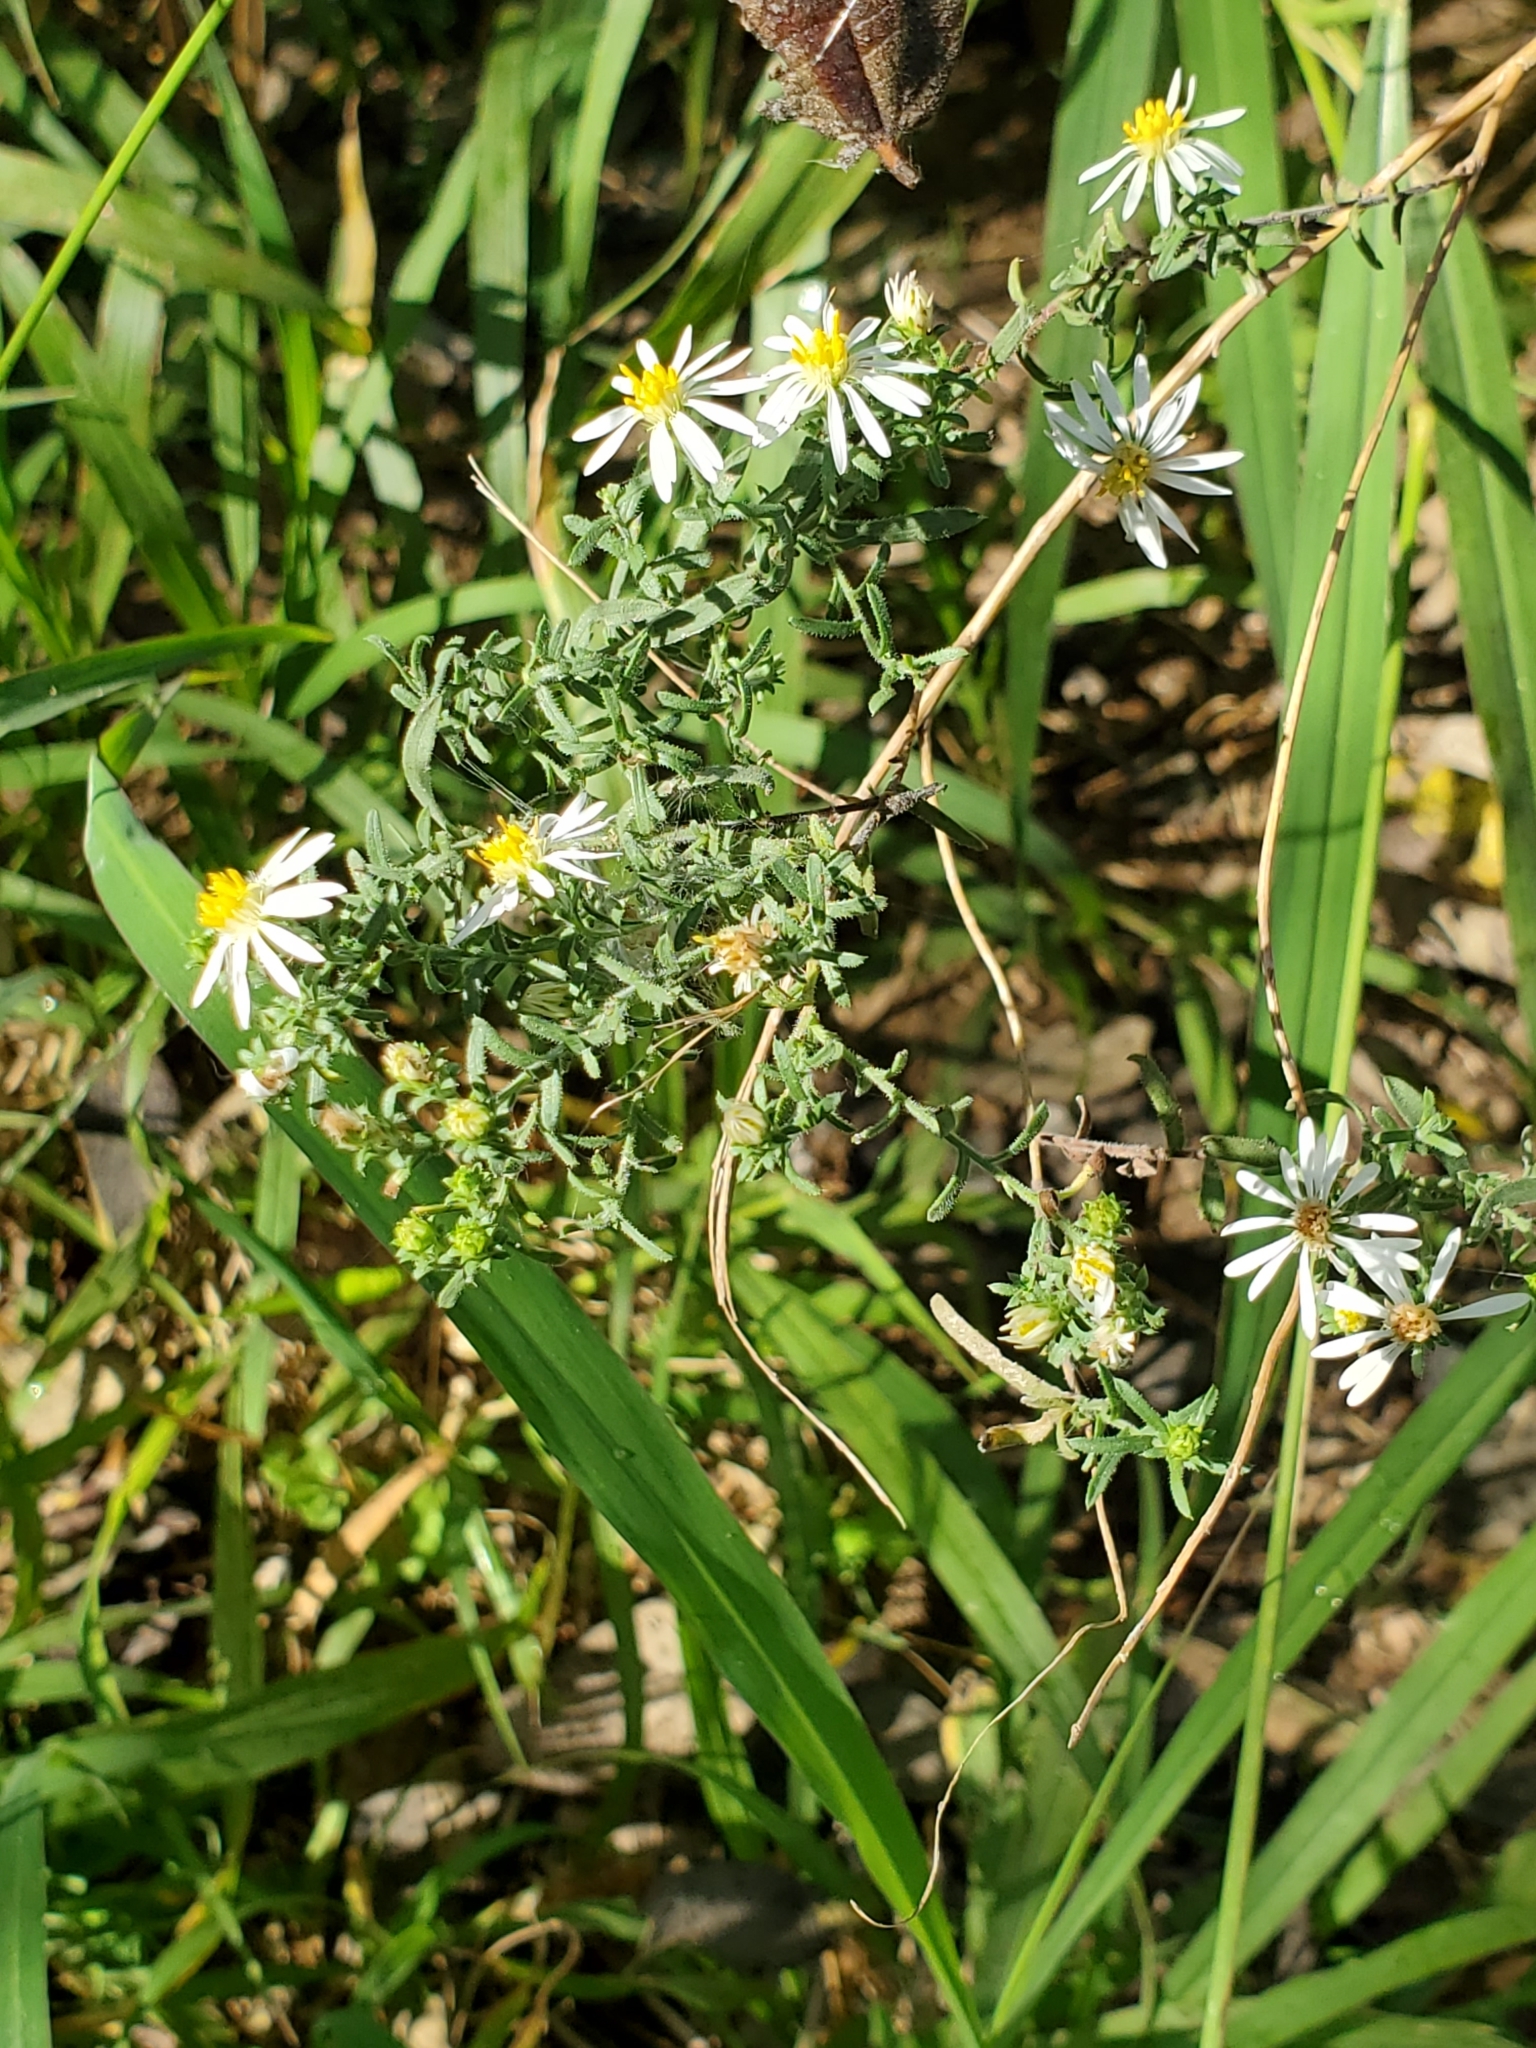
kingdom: Plantae
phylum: Tracheophyta
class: Magnoliopsida
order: Asterales
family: Asteraceae
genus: Symphyotrichum
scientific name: Symphyotrichum ericoides
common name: Heath aster
